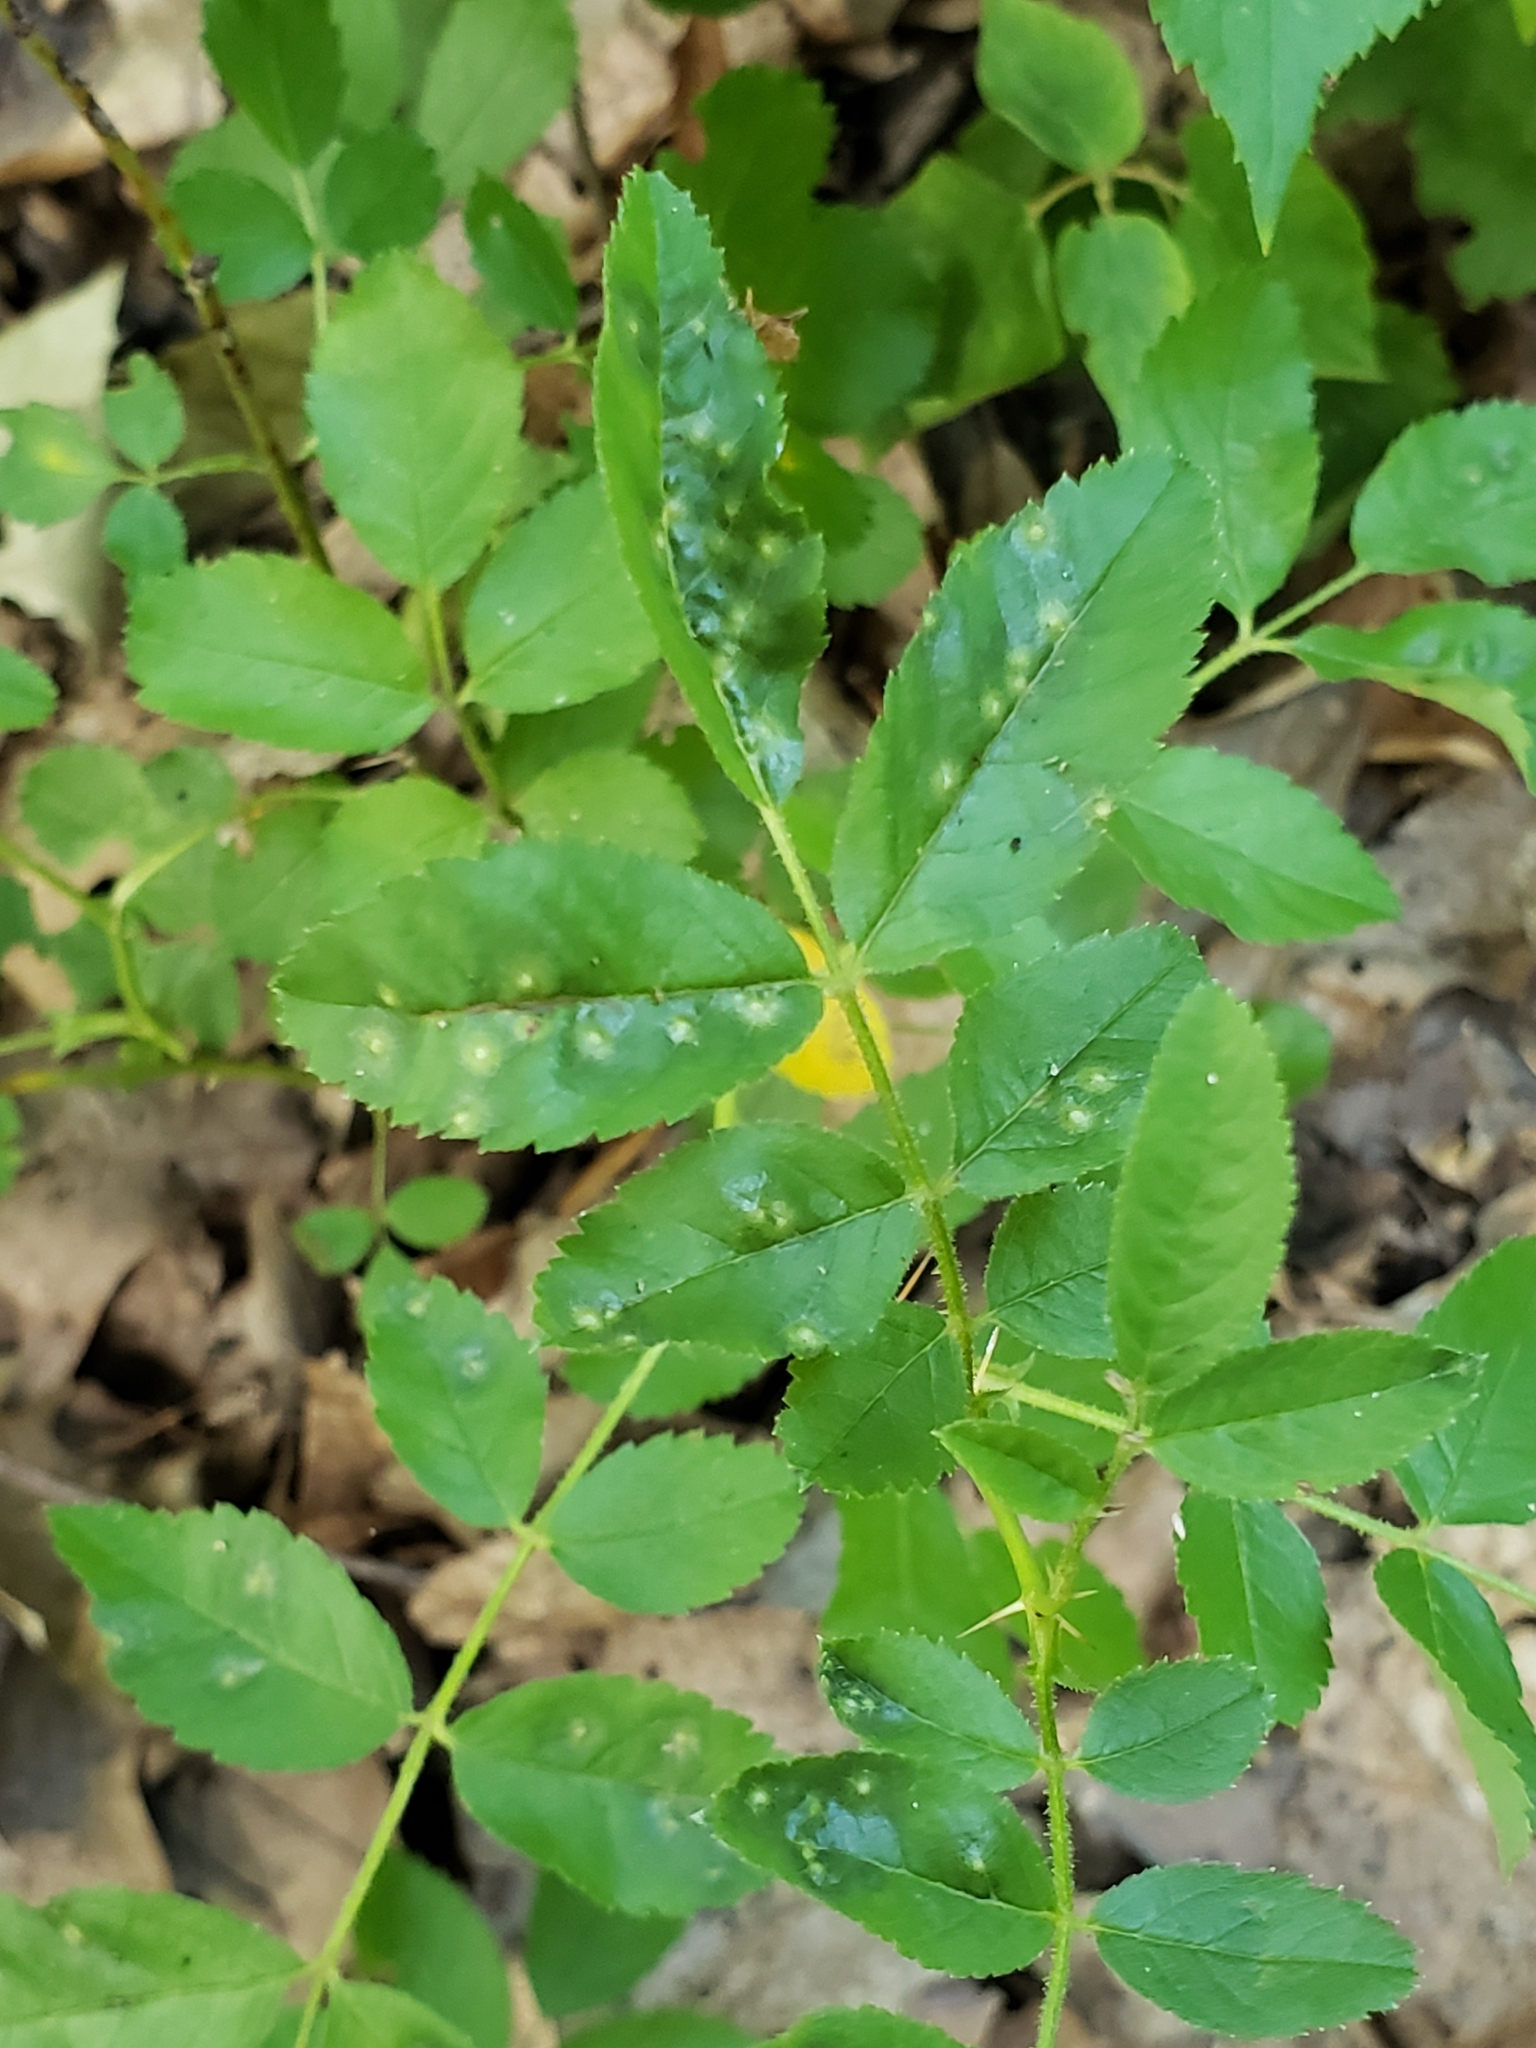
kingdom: Animalia
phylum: Arthropoda
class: Insecta
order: Hymenoptera
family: Cynipidae
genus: Diplolepis
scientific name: Diplolepis rosaefolii
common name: Blister-gall wasp
